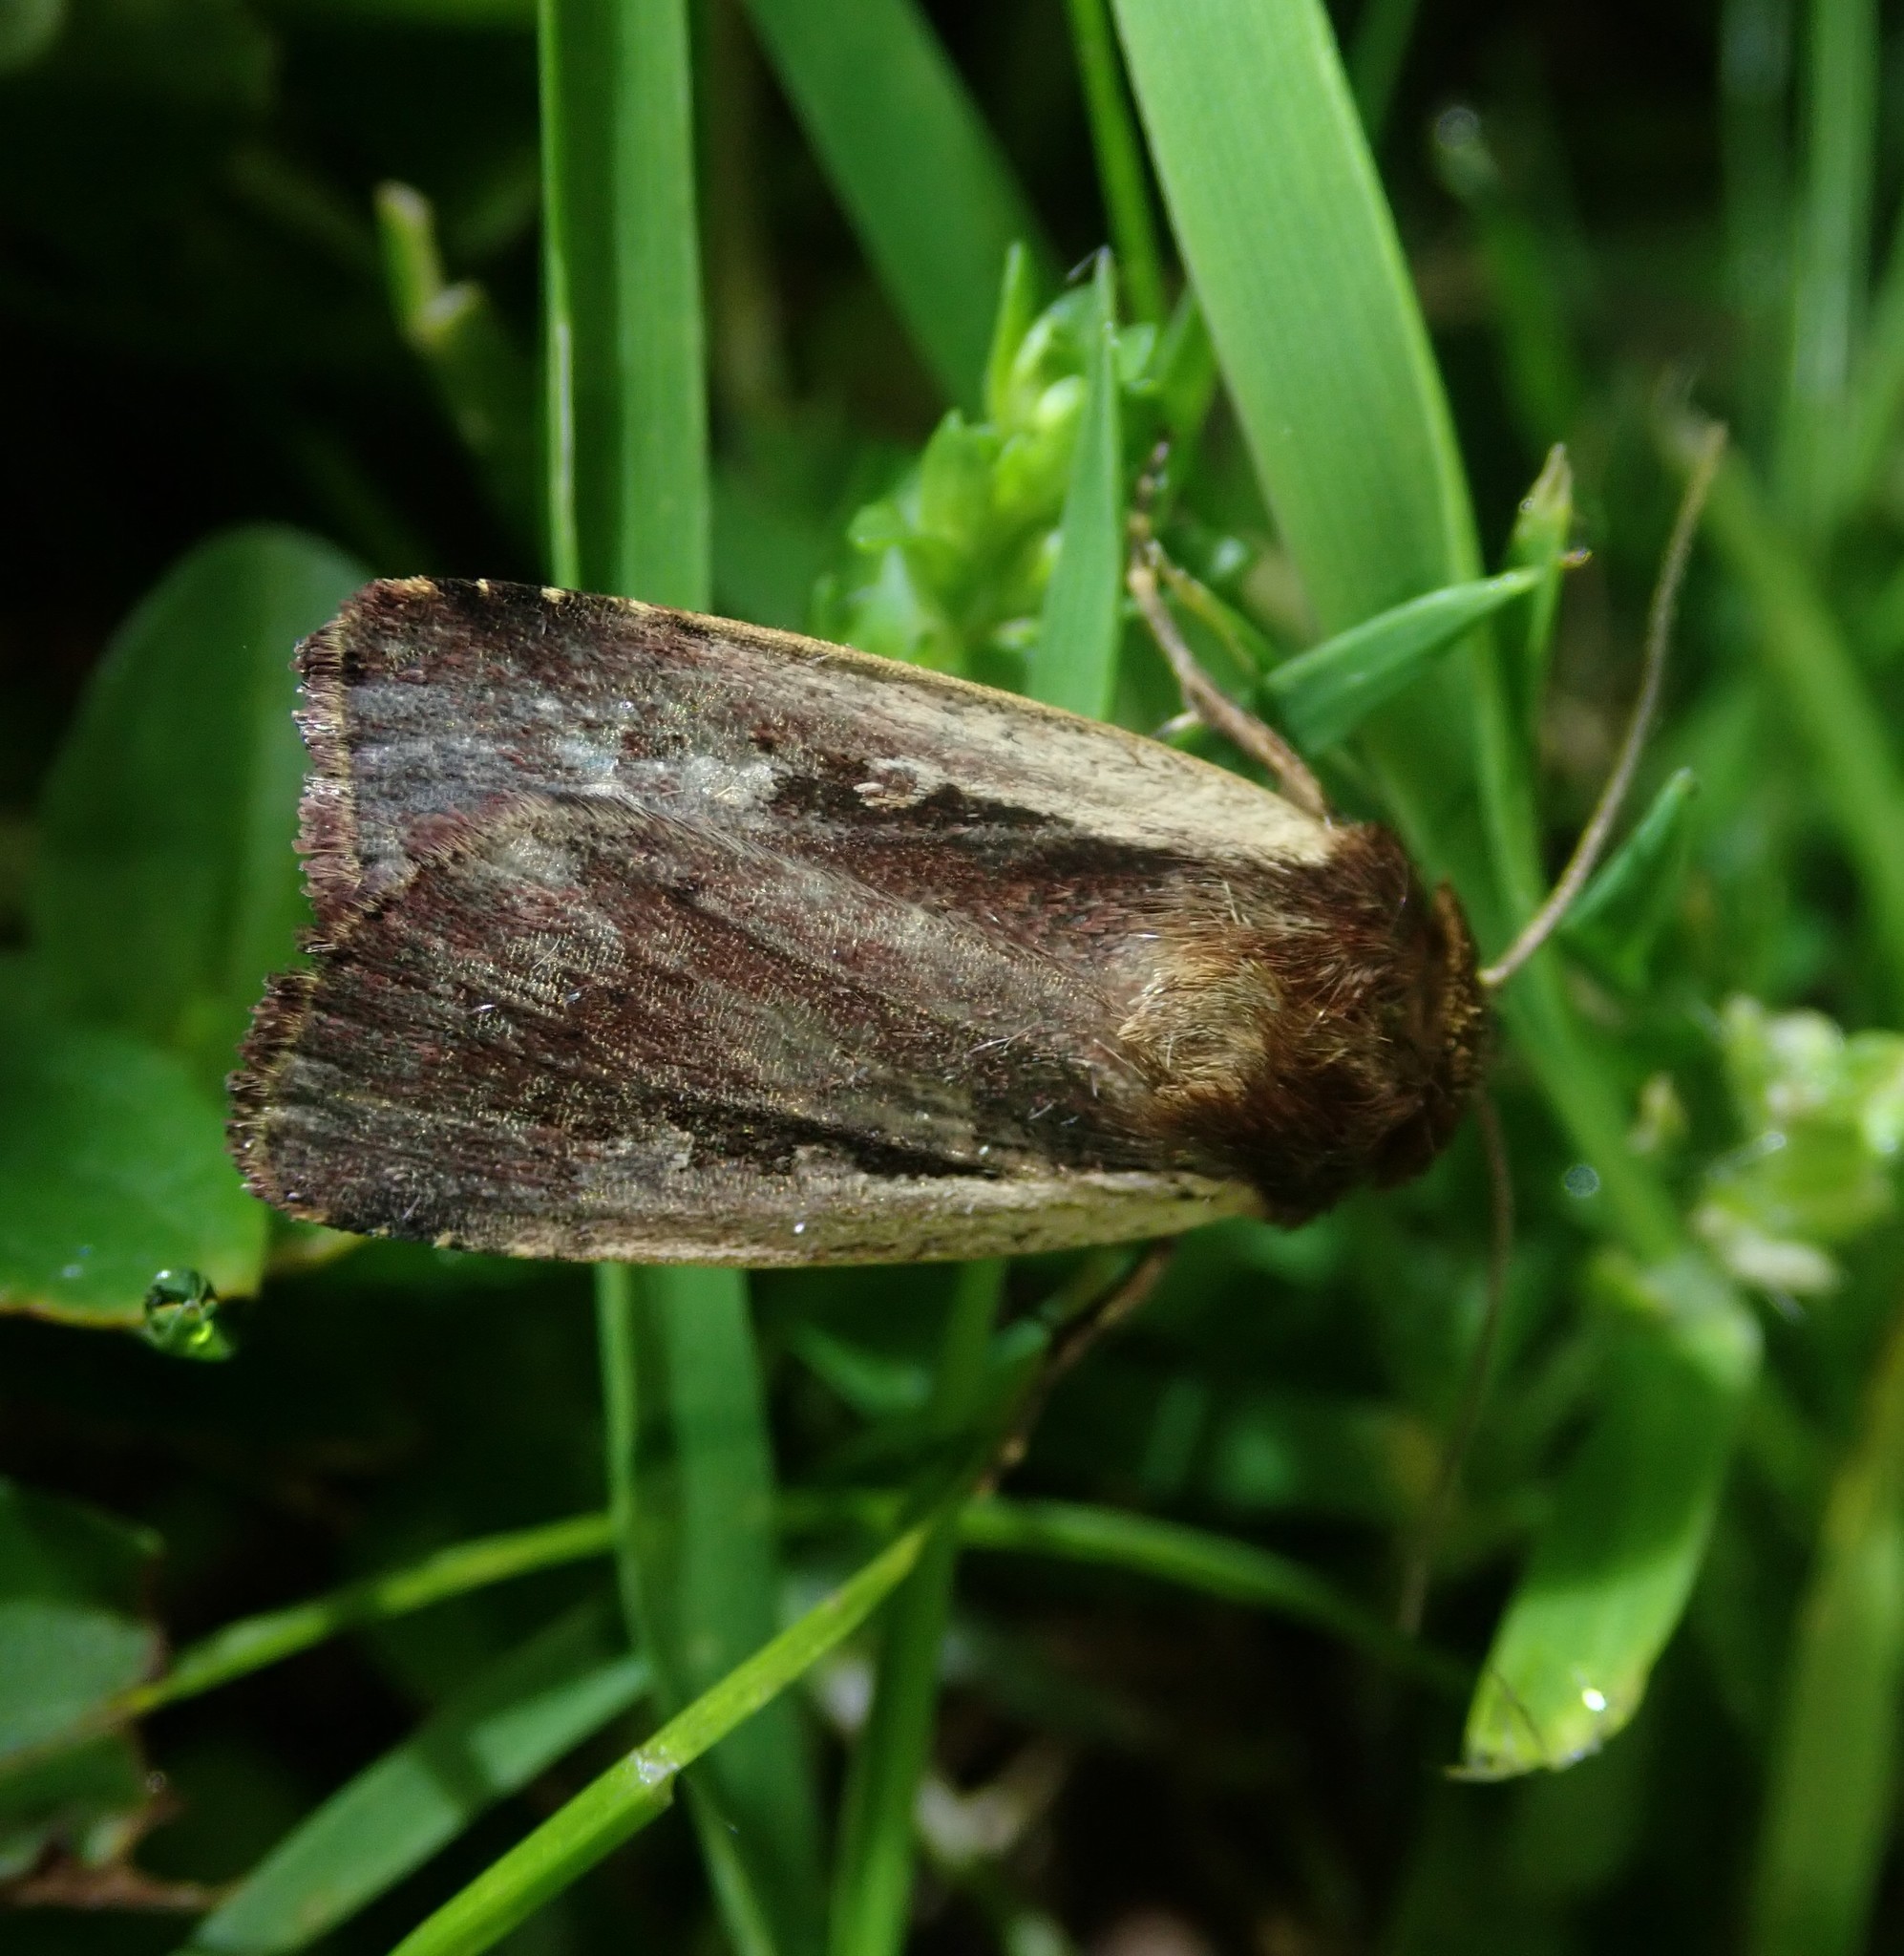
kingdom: Animalia
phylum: Arthropoda
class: Insecta
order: Lepidoptera
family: Noctuidae
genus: Ochropleura
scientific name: Ochropleura plecta
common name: Flame shoulder
